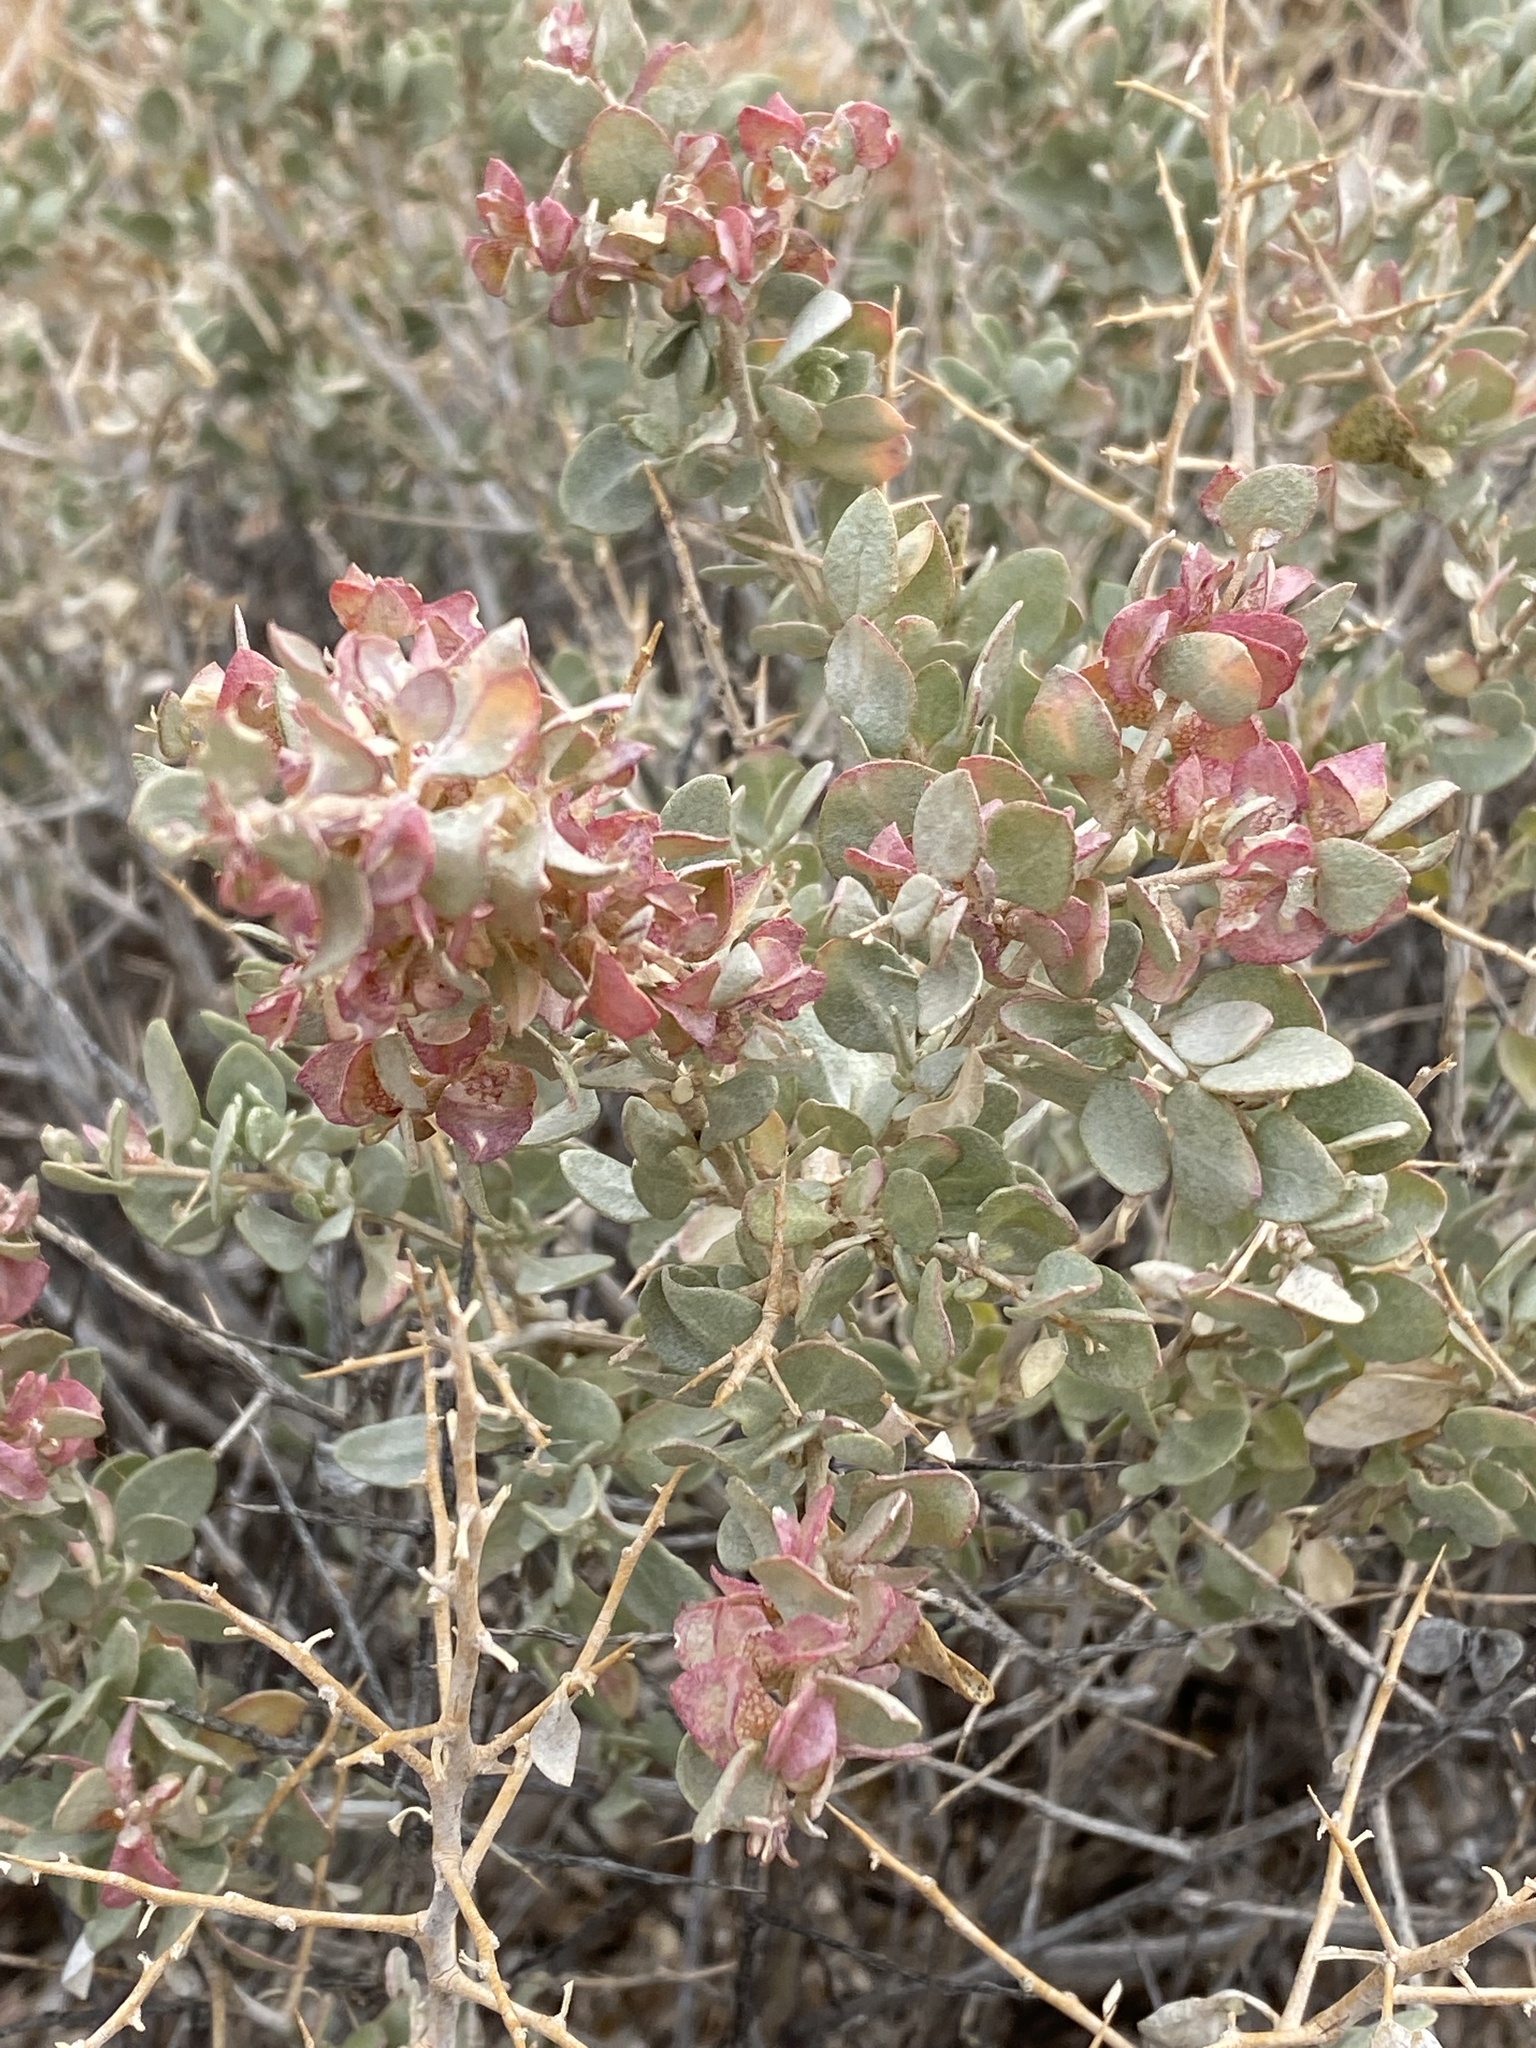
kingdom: Plantae
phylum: Tracheophyta
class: Magnoliopsida
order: Caryophyllales
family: Amaranthaceae
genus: Atriplex
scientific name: Atriplex confertifolia
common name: Shadscale
